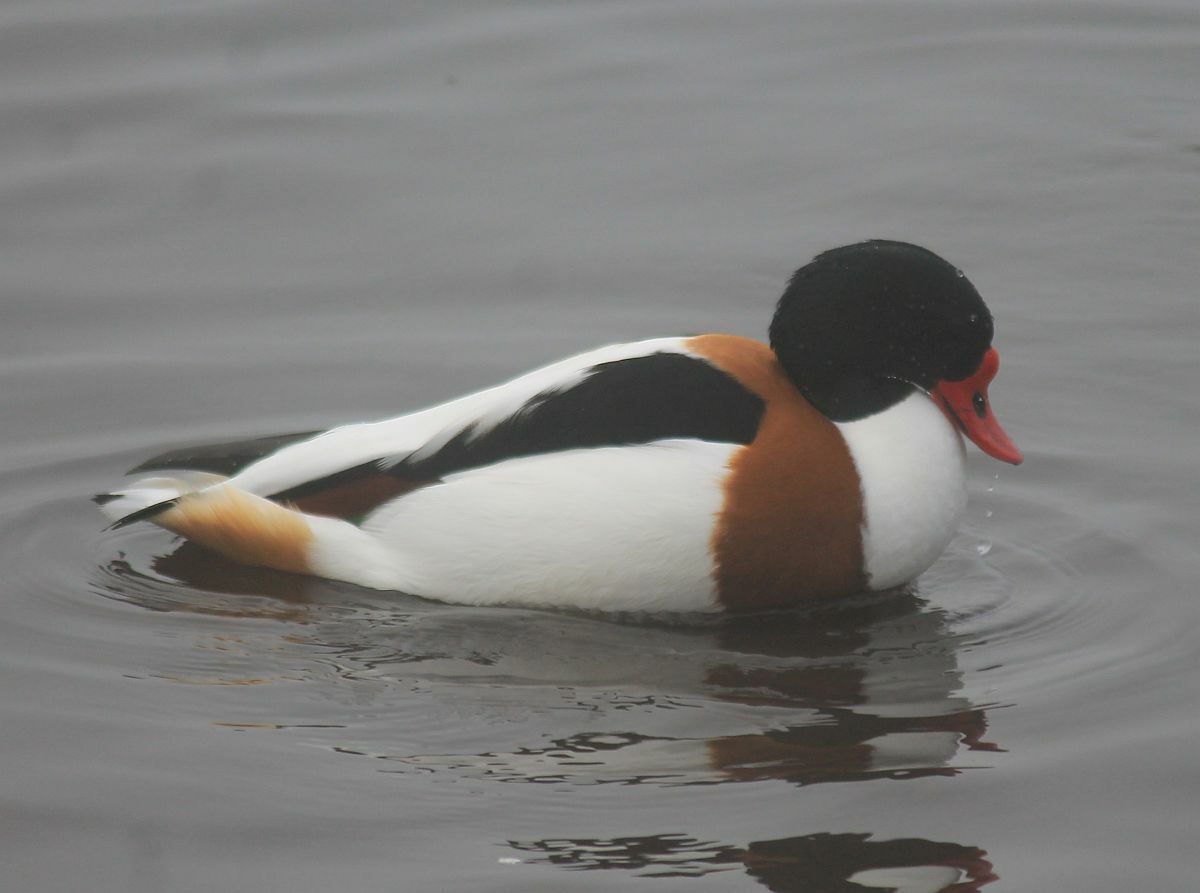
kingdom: Animalia
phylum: Chordata
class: Aves
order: Anseriformes
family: Anatidae
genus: Tadorna
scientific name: Tadorna tadorna
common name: Common shelduck
